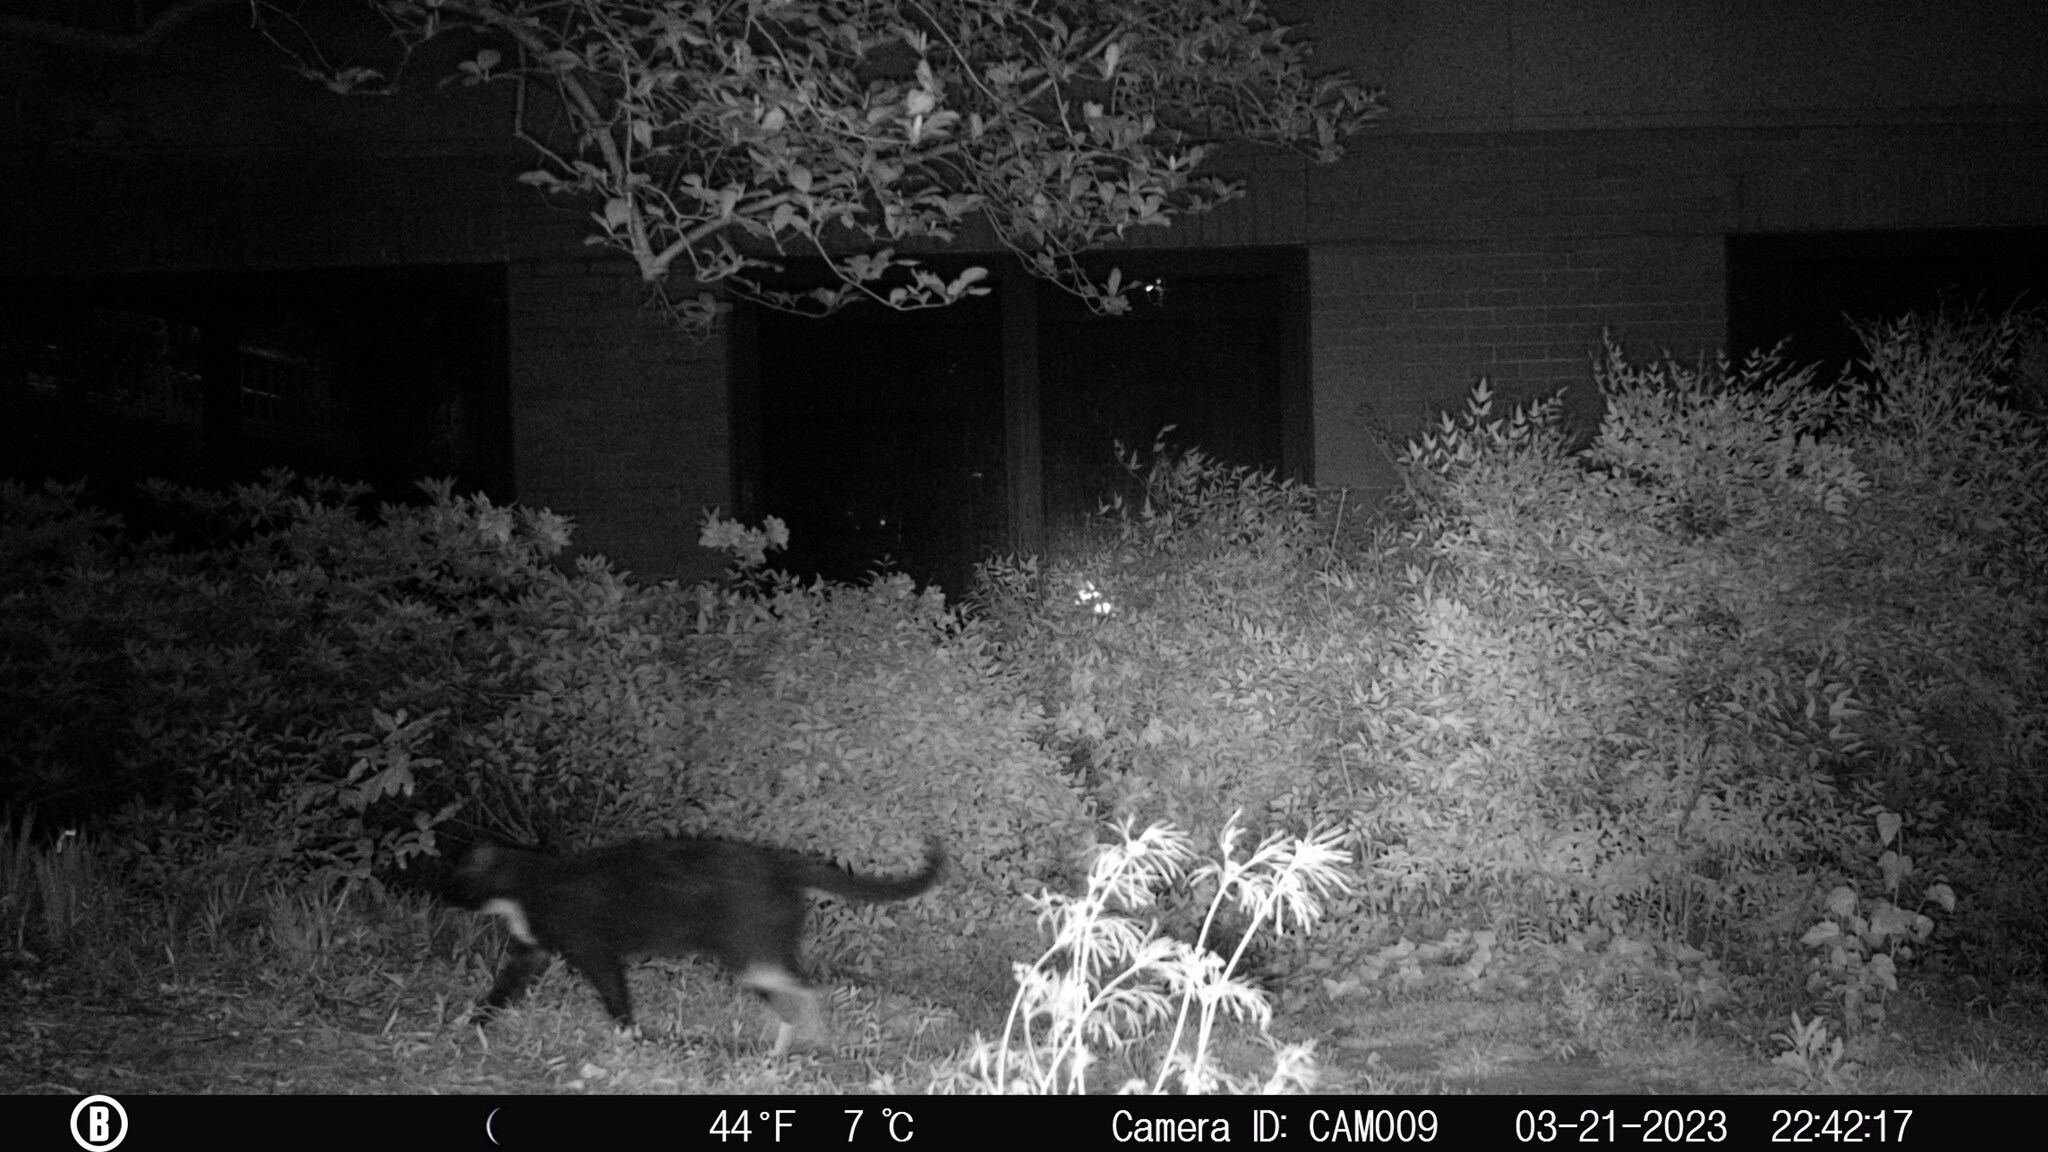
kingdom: Animalia
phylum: Chordata
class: Mammalia
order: Carnivora
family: Felidae
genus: Felis
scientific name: Felis catus
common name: Domestic cat
